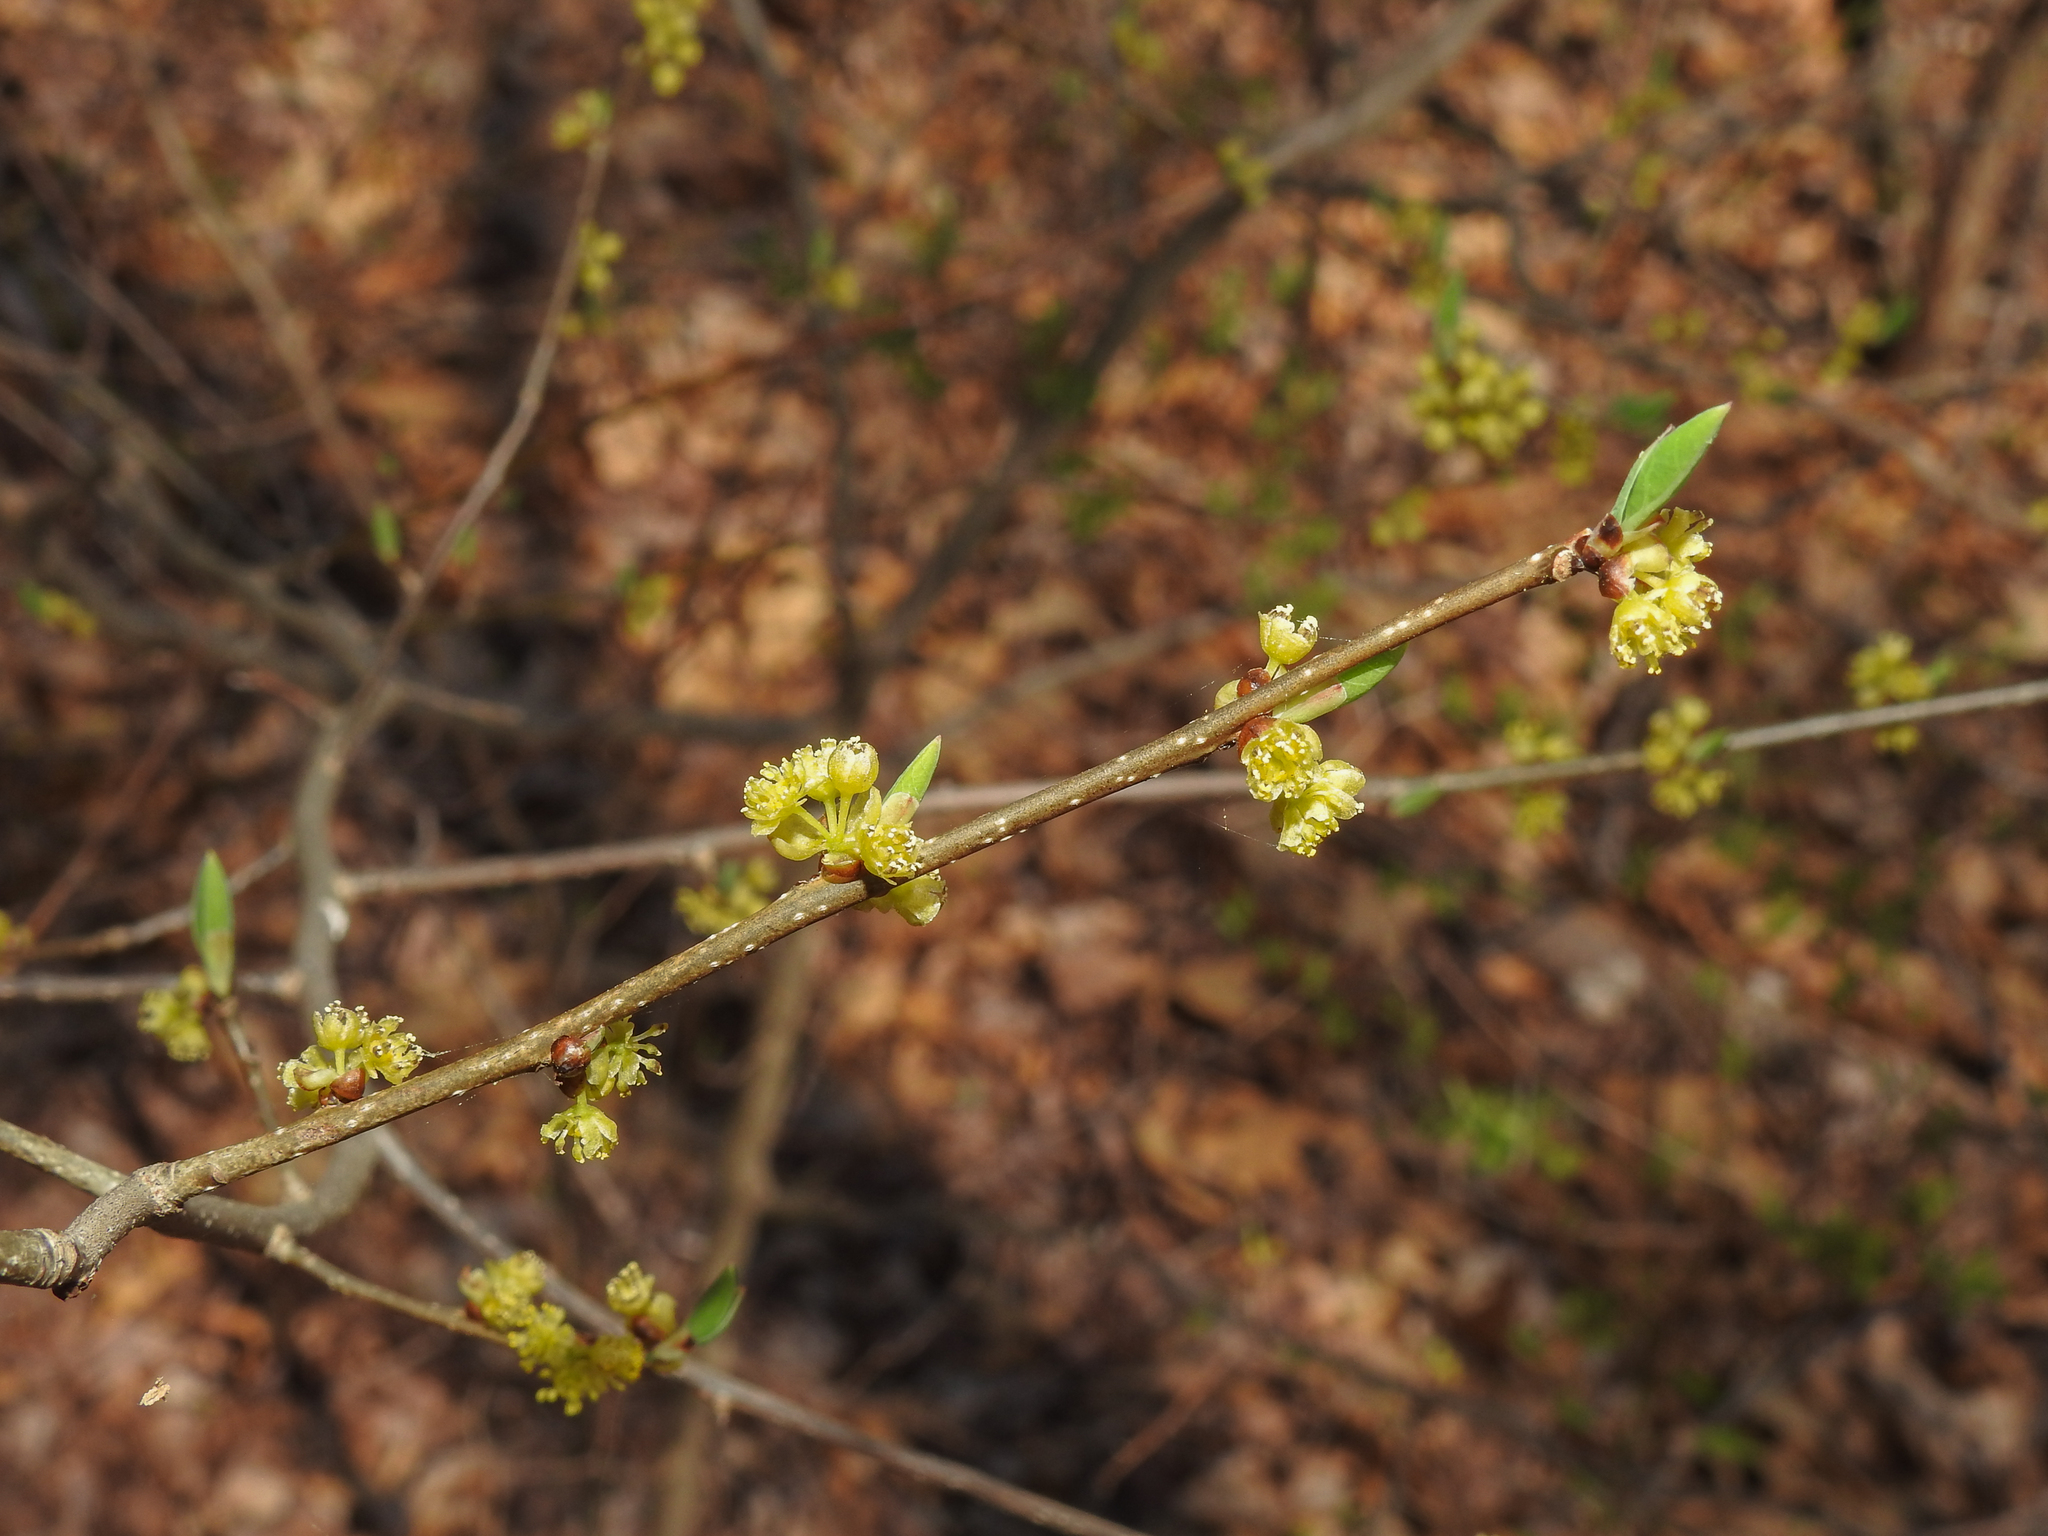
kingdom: Plantae
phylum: Tracheophyta
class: Magnoliopsida
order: Laurales
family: Lauraceae
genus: Lindera
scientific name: Lindera benzoin
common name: Spicebush
